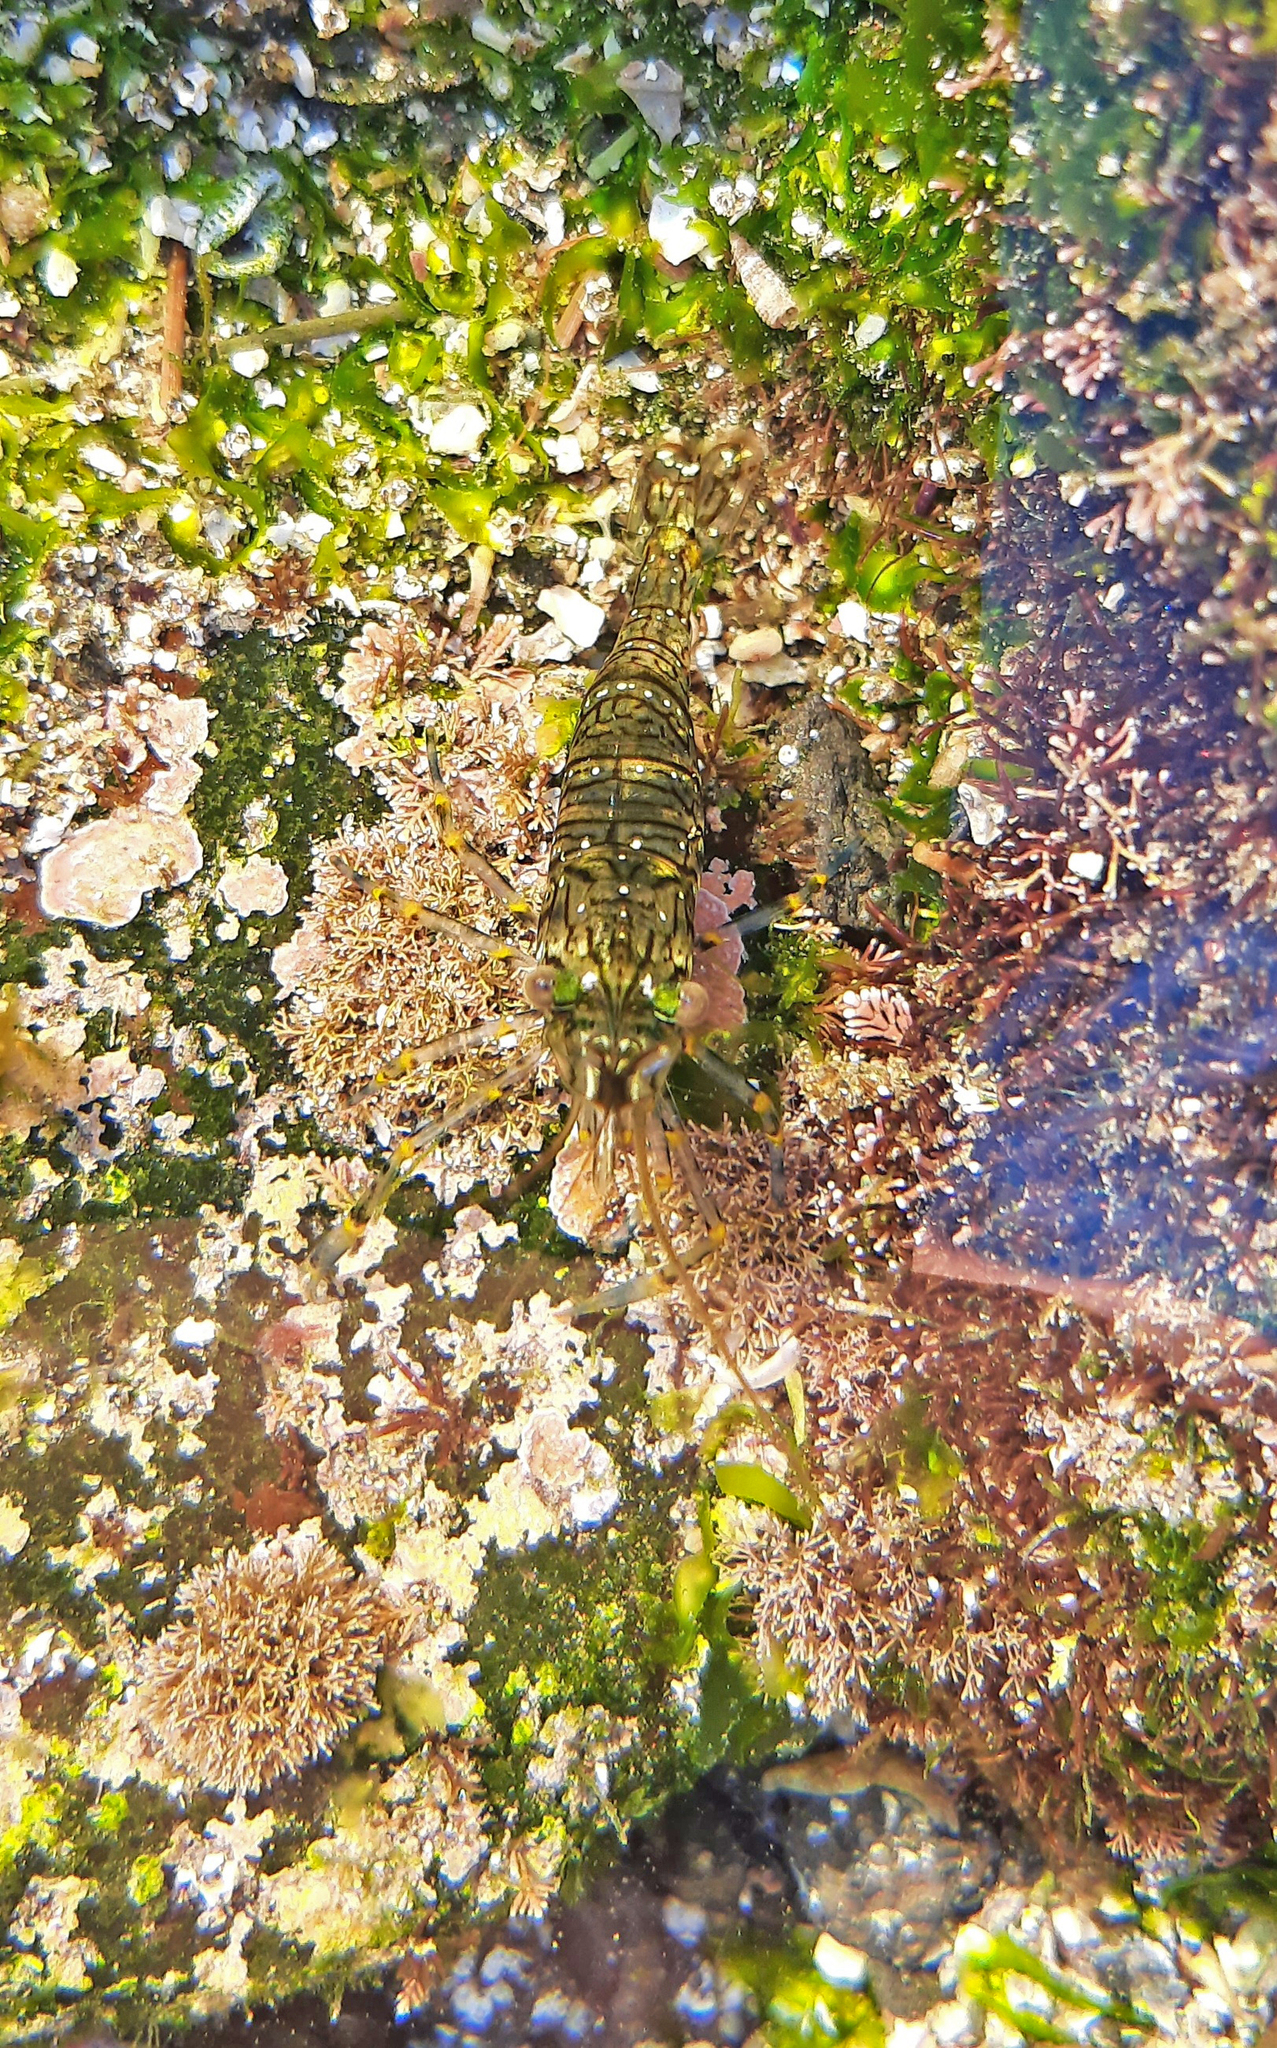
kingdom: Animalia
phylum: Arthropoda
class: Malacostraca
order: Decapoda
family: Palaemonidae
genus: Palaemon
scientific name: Palaemon elegans
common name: Grass prawm
